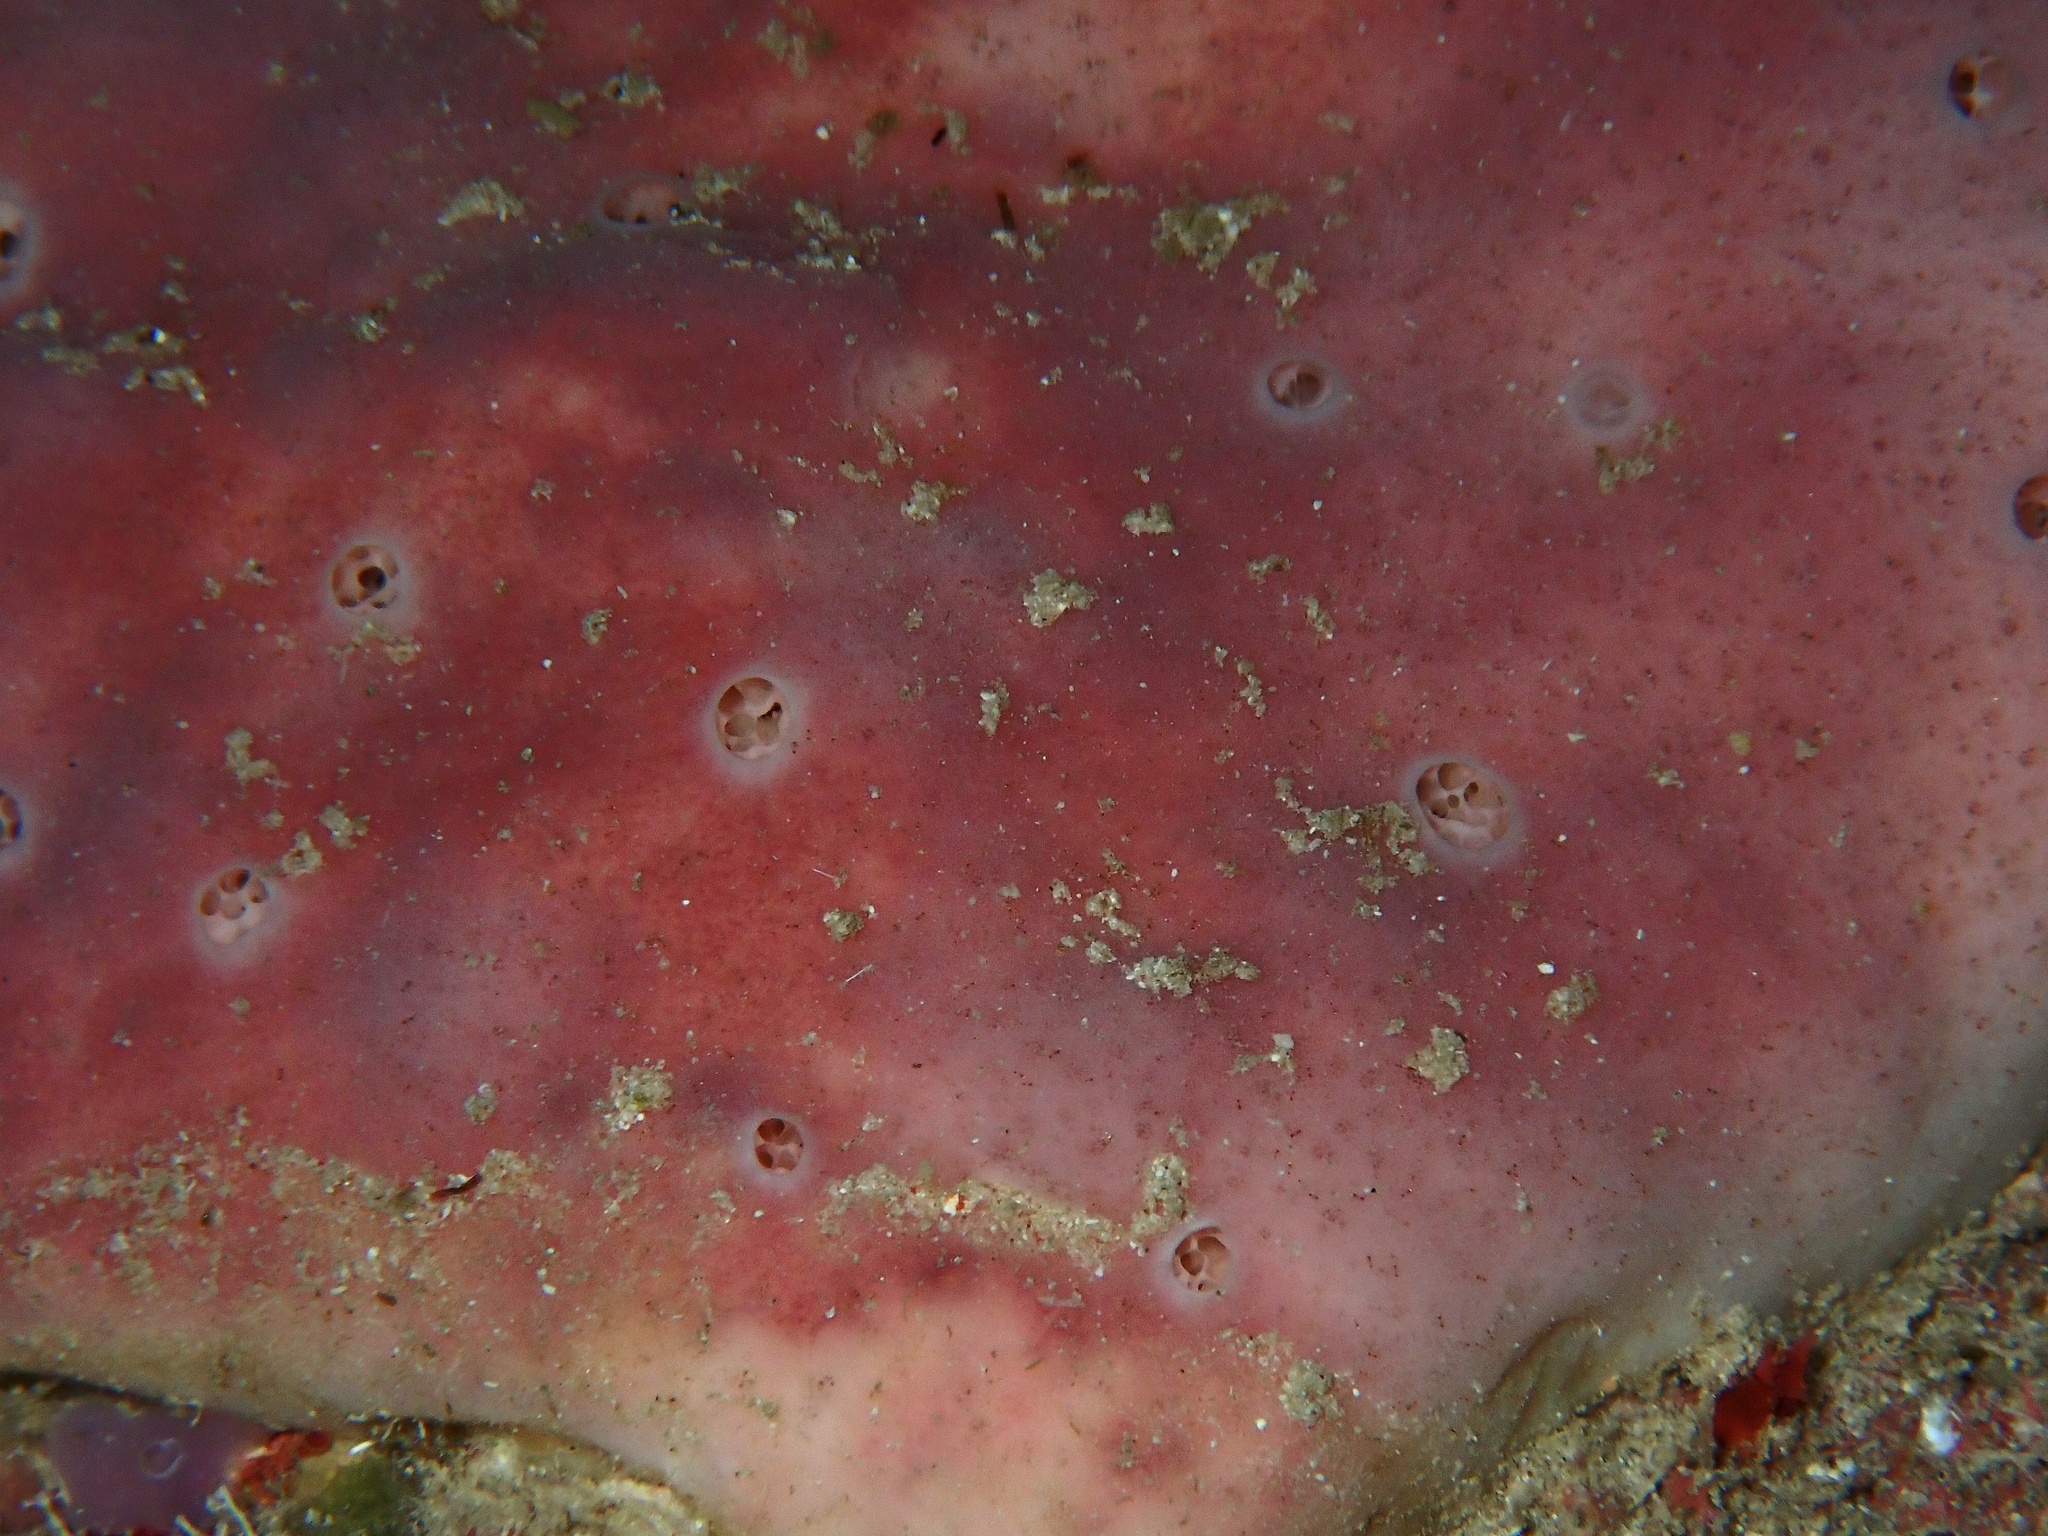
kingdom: Animalia
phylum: Porifera
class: Demospongiae
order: Haplosclerida
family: Petrosiidae
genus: Petrosia
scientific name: Petrosia corticata
